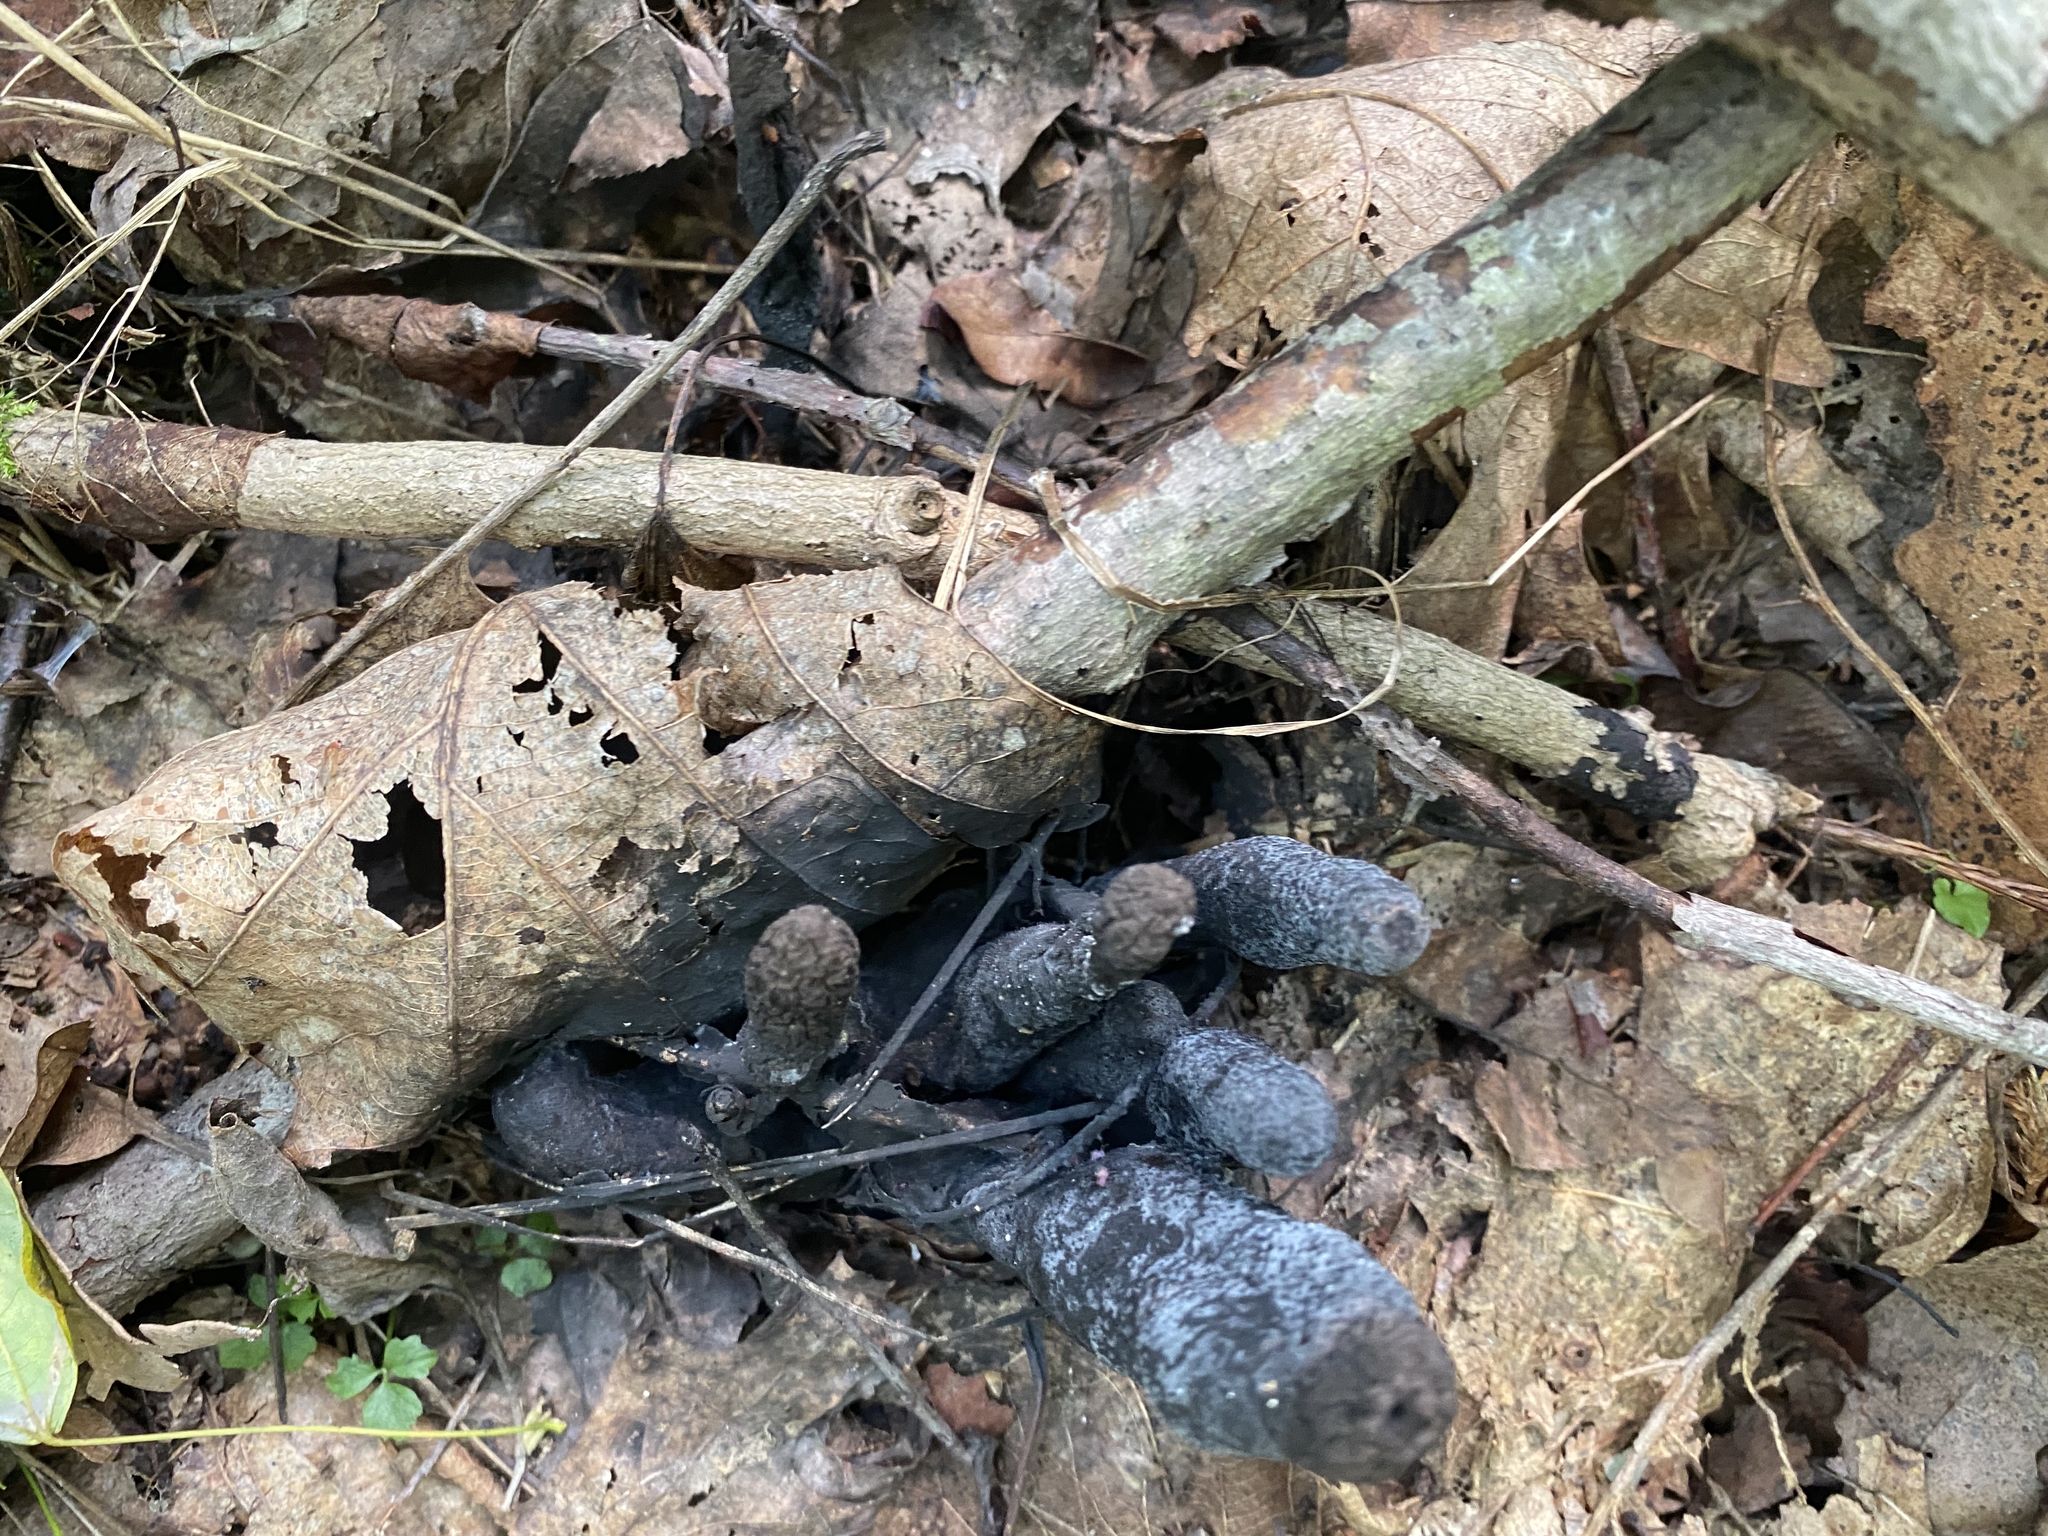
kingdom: Fungi
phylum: Ascomycota
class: Sordariomycetes
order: Xylariales
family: Xylariaceae
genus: Xylaria
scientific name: Xylaria polymorpha
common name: Dead man's fingers
